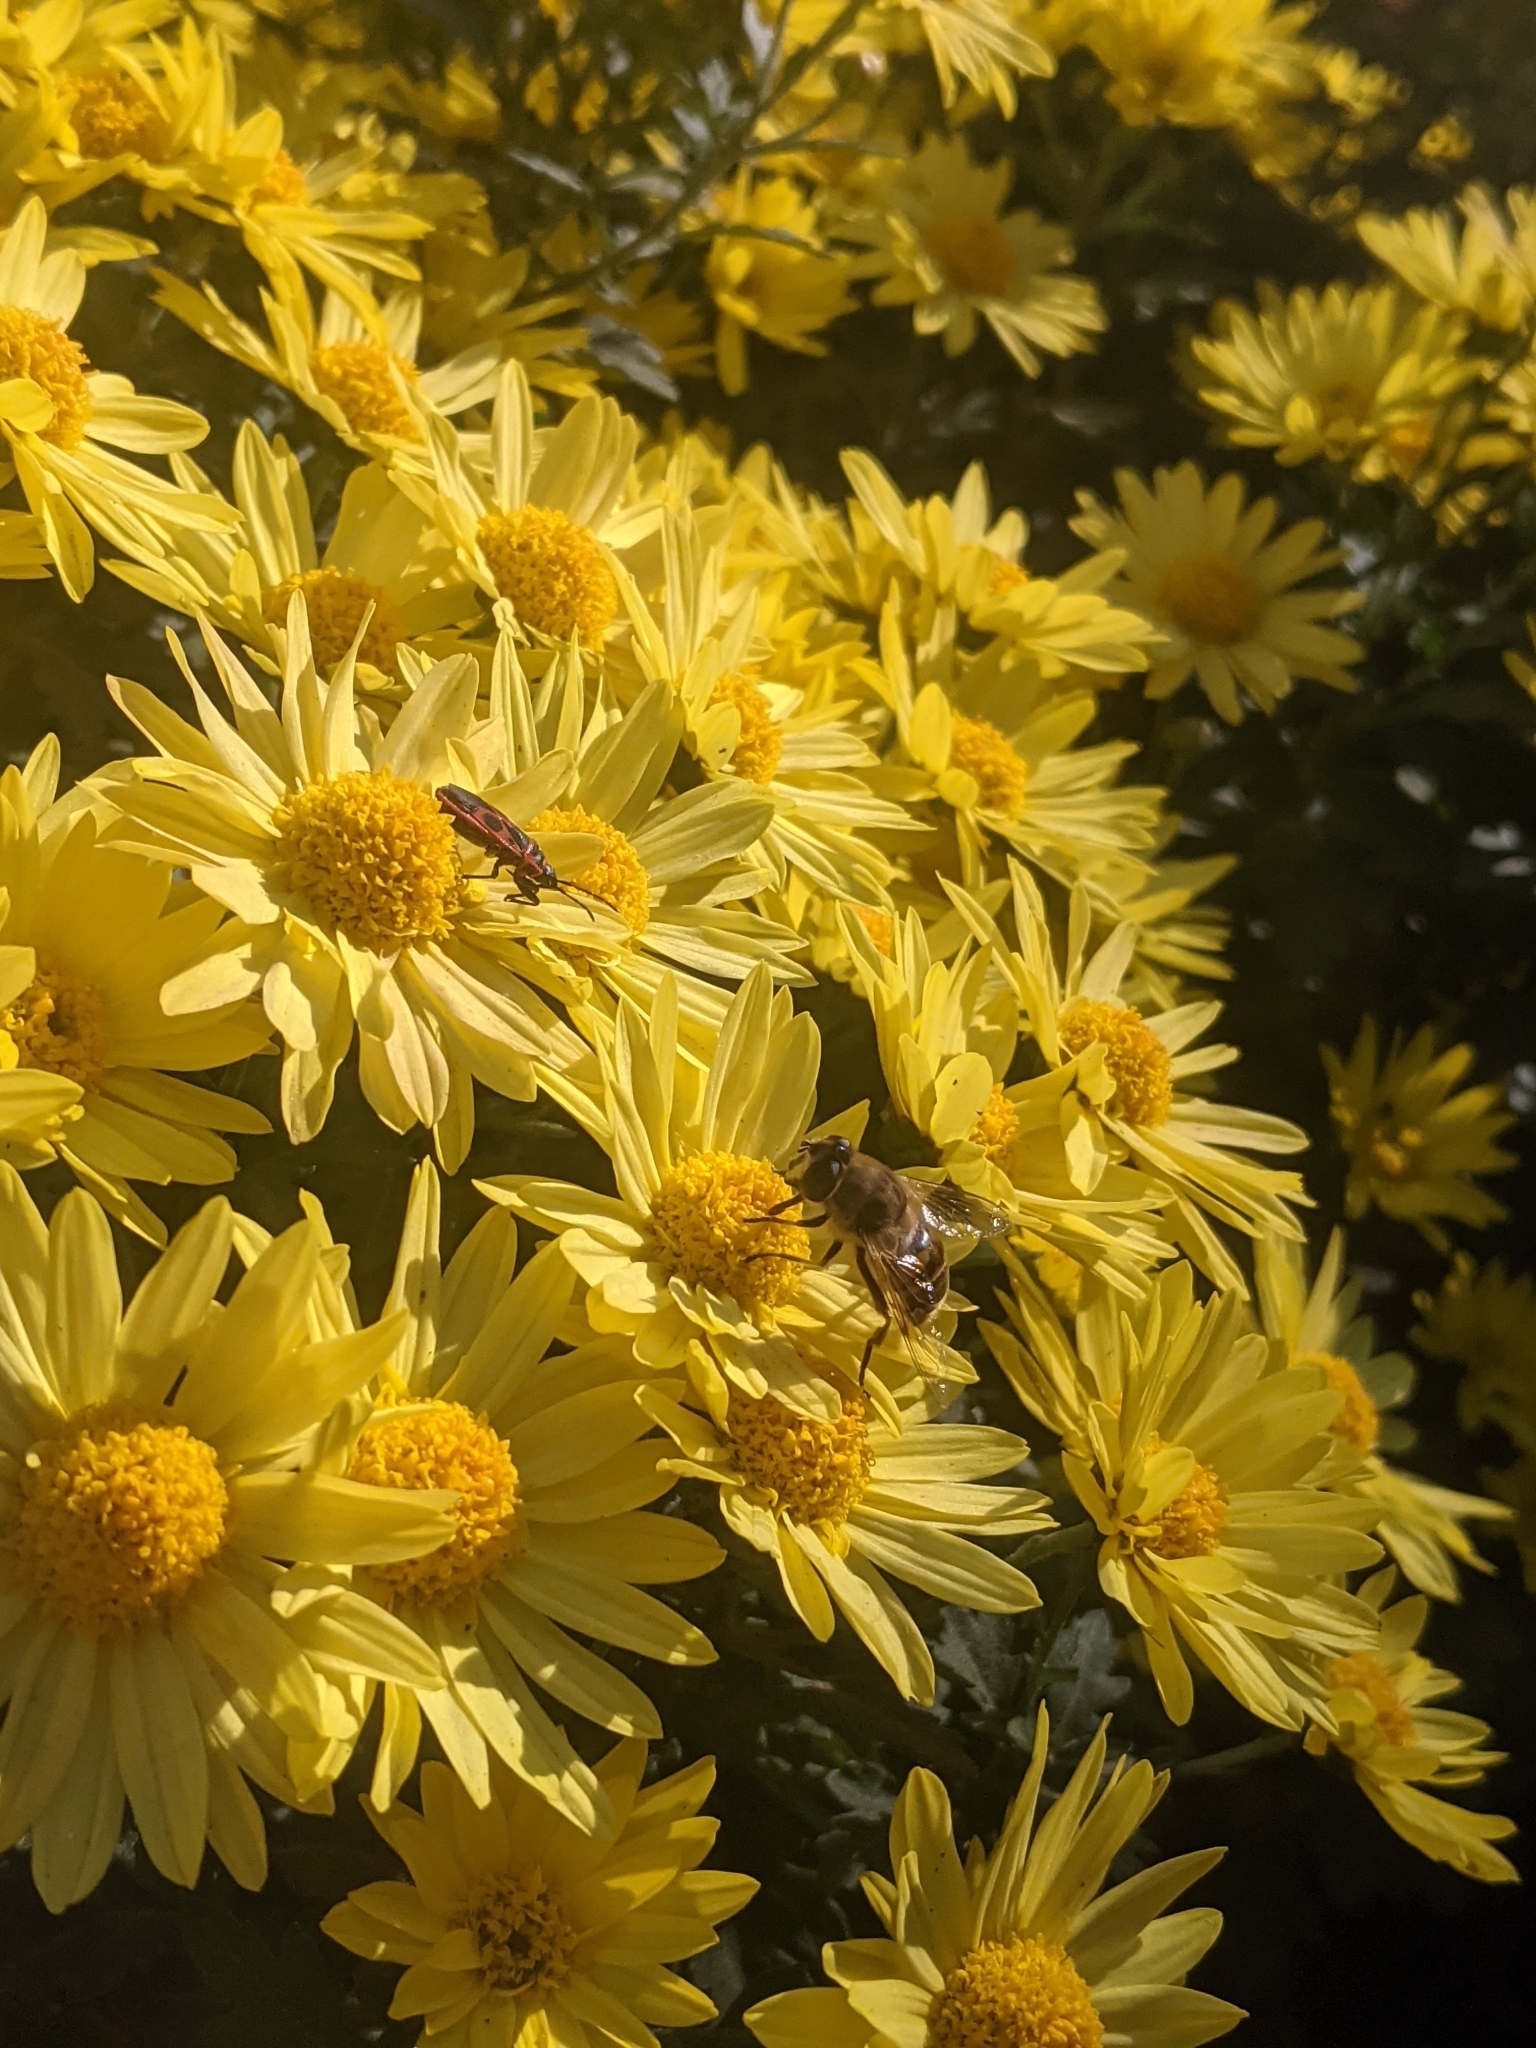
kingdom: Animalia
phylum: Arthropoda
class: Insecta
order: Diptera
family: Syrphidae
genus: Eristalis
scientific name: Eristalis tenax
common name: Drone fly
